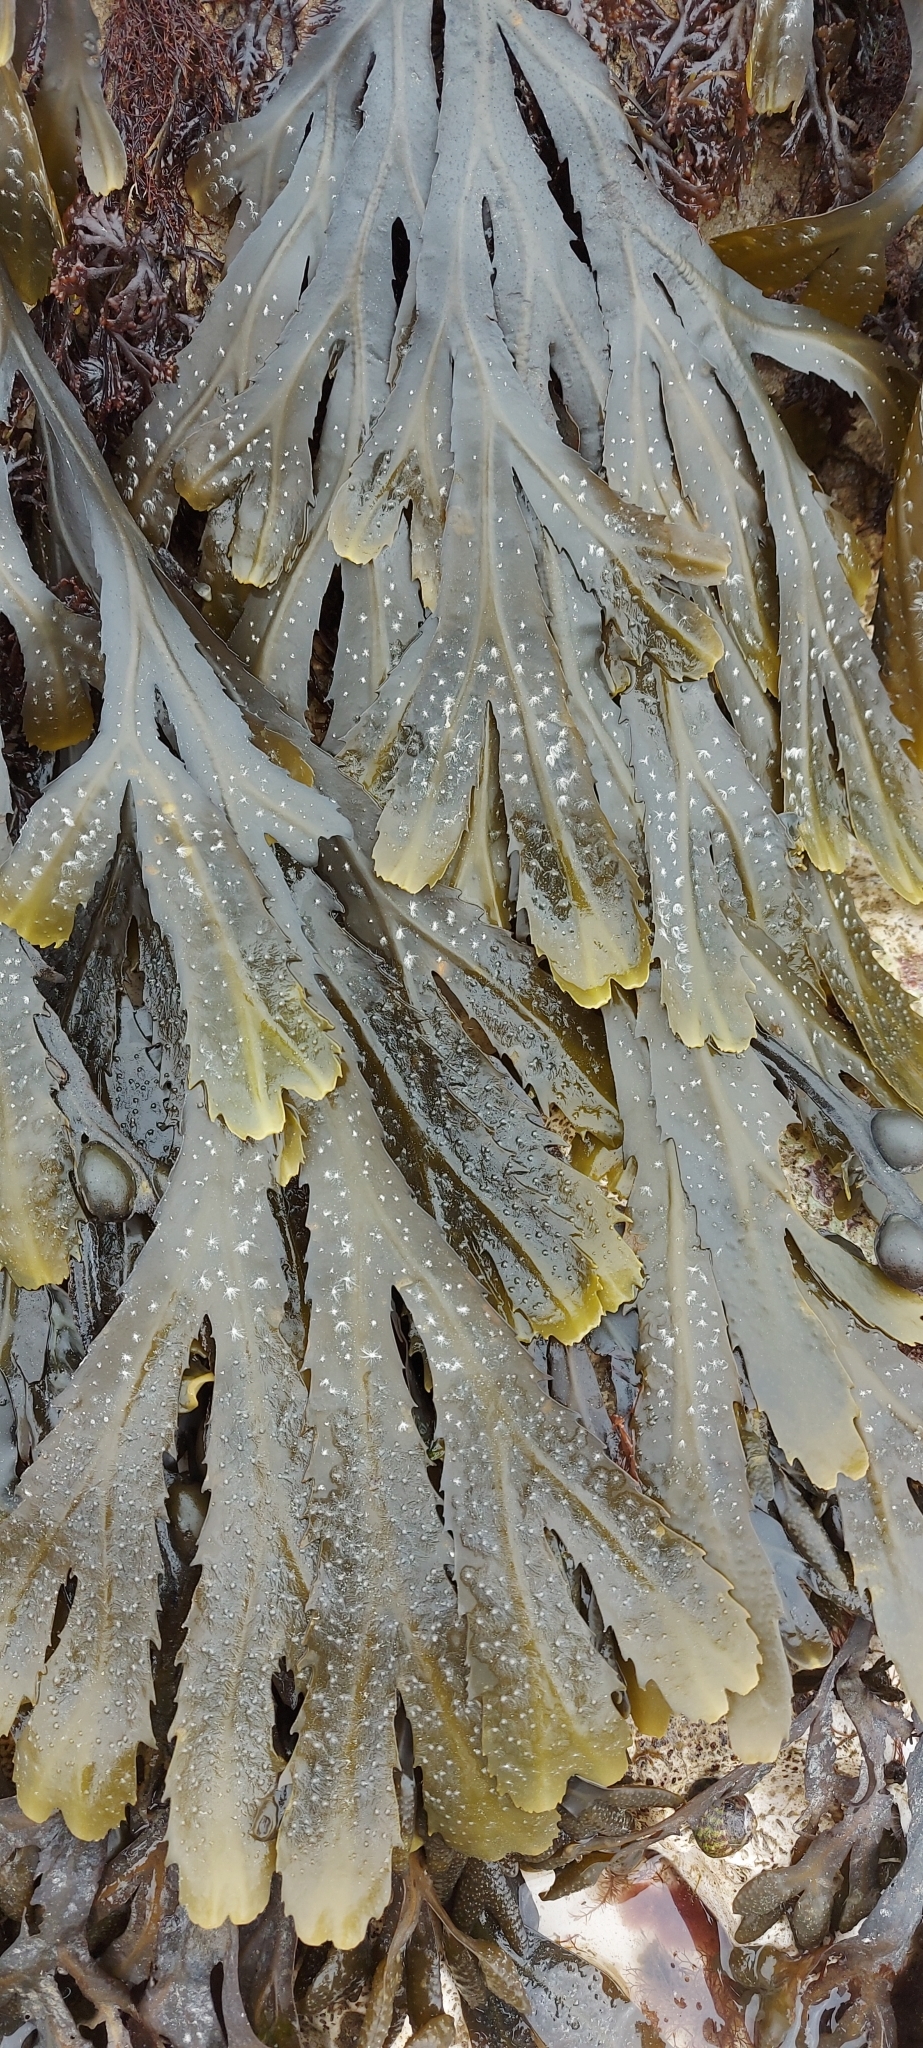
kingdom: Chromista
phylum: Ochrophyta
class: Phaeophyceae
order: Fucales
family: Fucaceae
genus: Fucus
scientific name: Fucus serratus
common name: Toothed wrack
